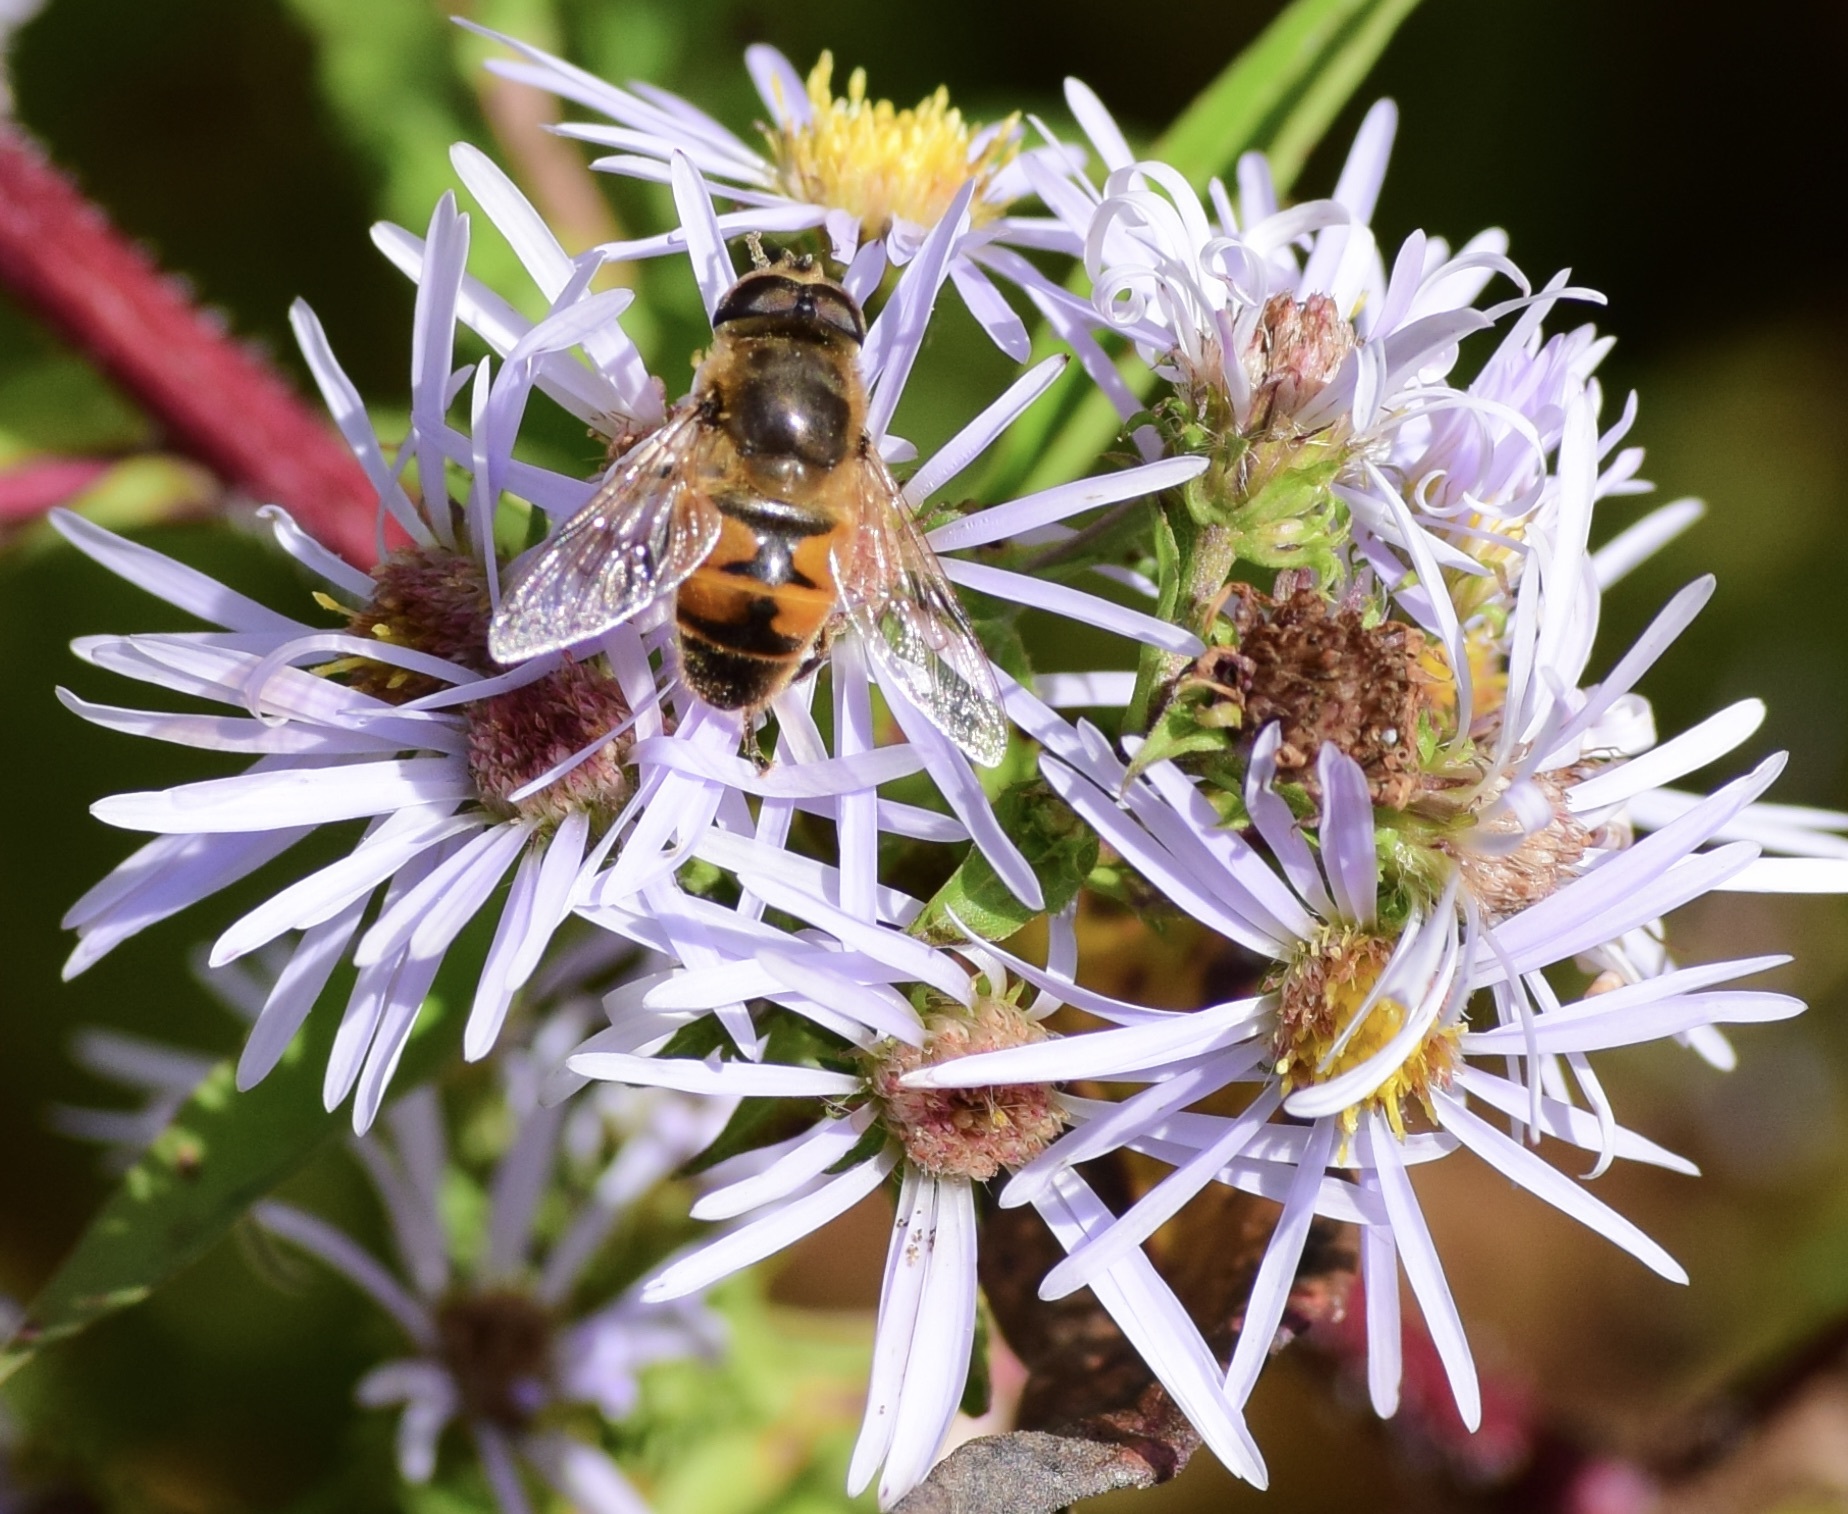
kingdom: Animalia
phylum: Arthropoda
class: Insecta
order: Diptera
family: Syrphidae
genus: Eristalis
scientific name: Eristalis tenax
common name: Drone fly
